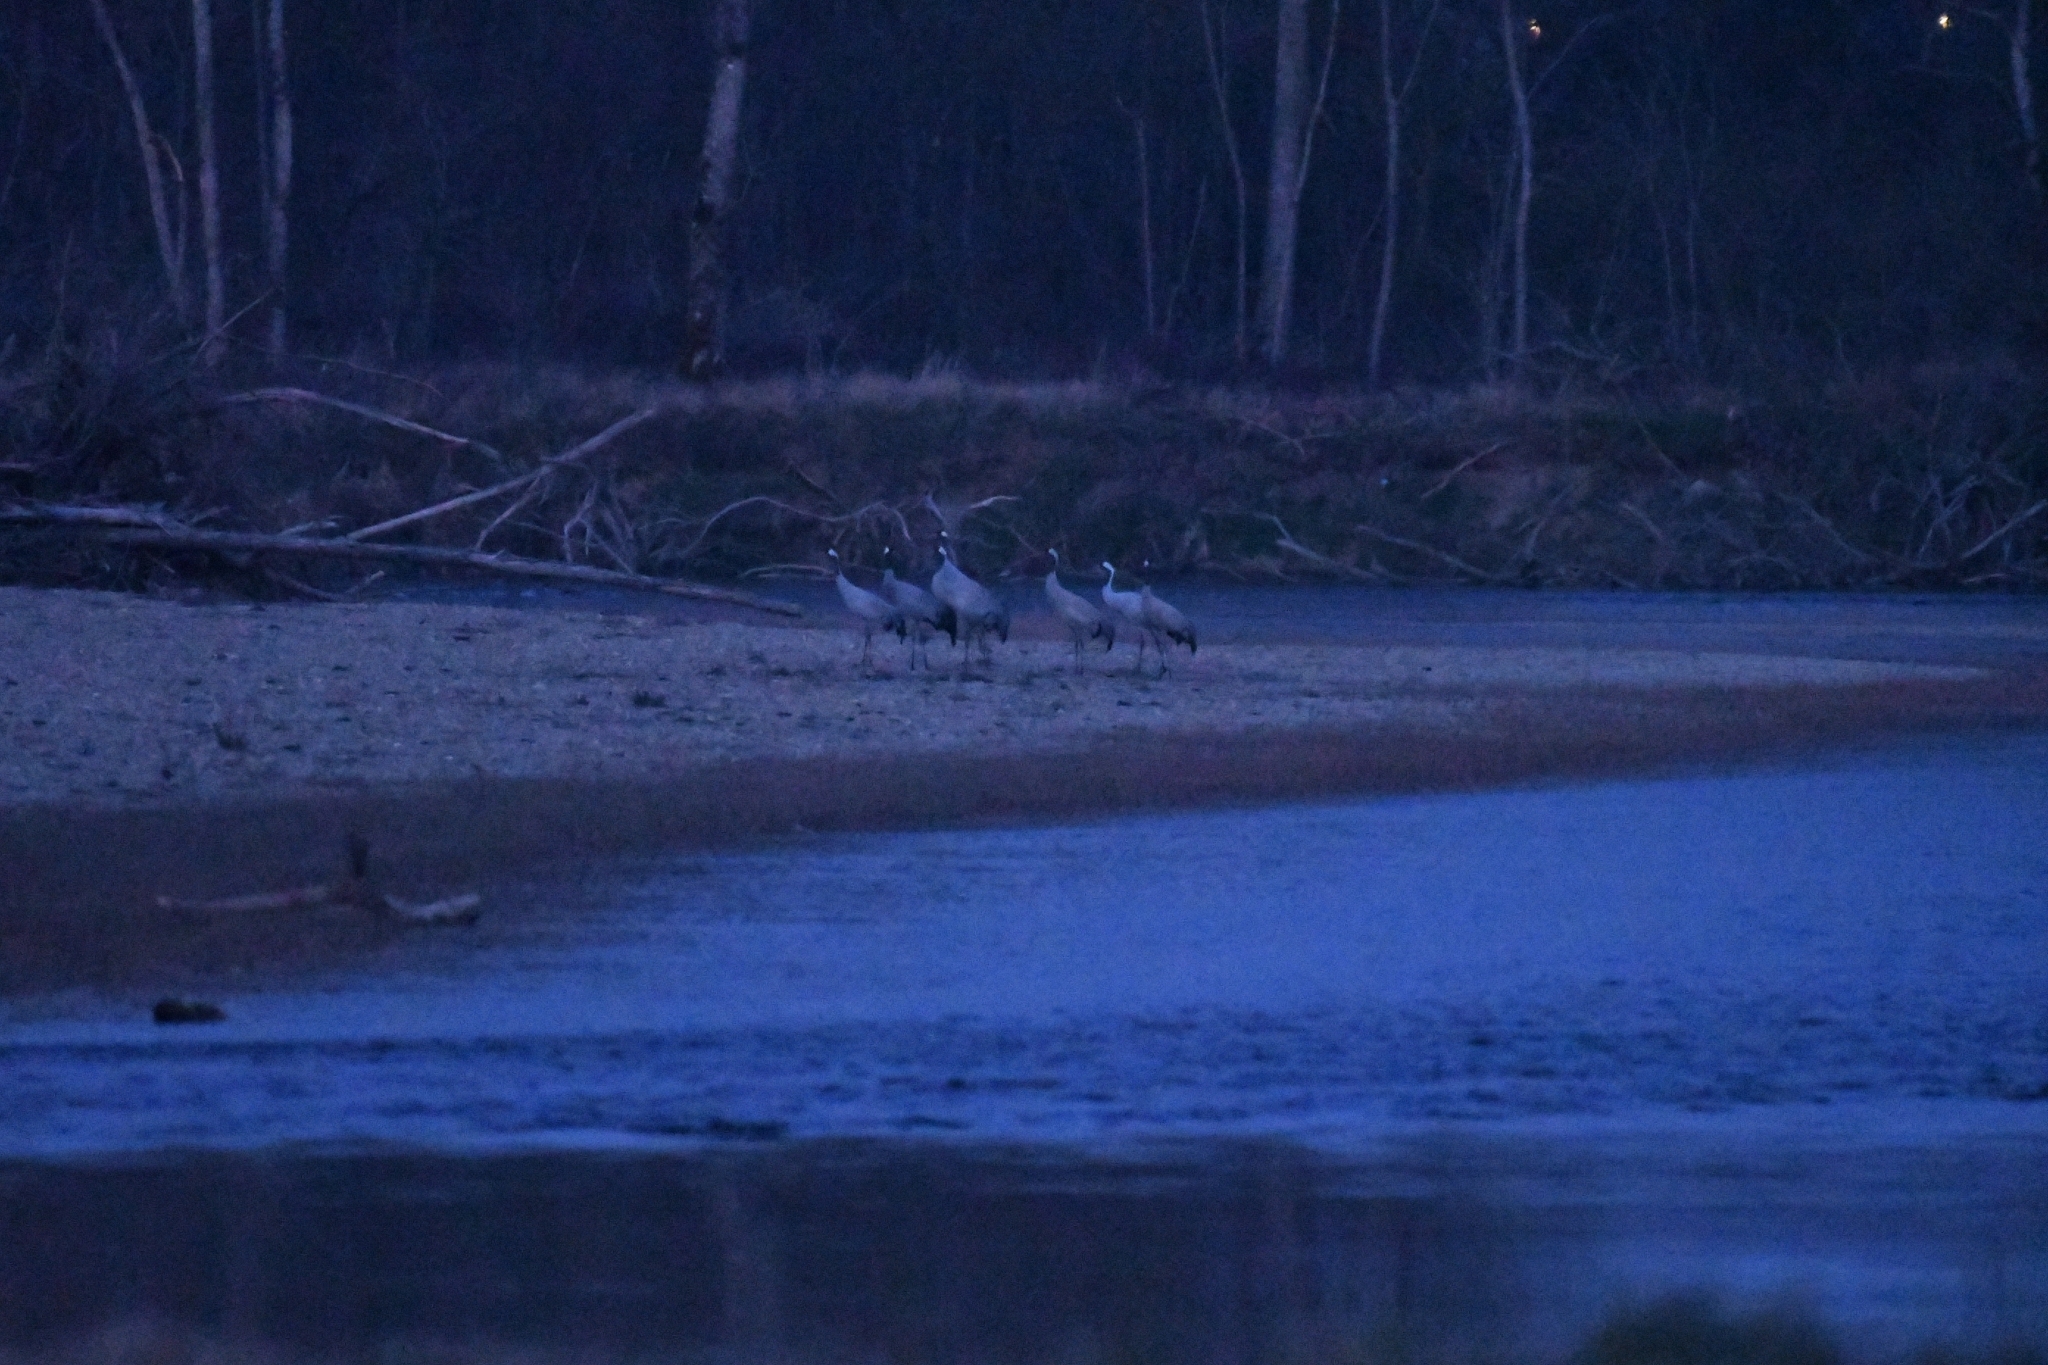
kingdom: Animalia
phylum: Chordata
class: Aves
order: Gruiformes
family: Gruidae
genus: Grus
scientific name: Grus grus
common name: Common crane
